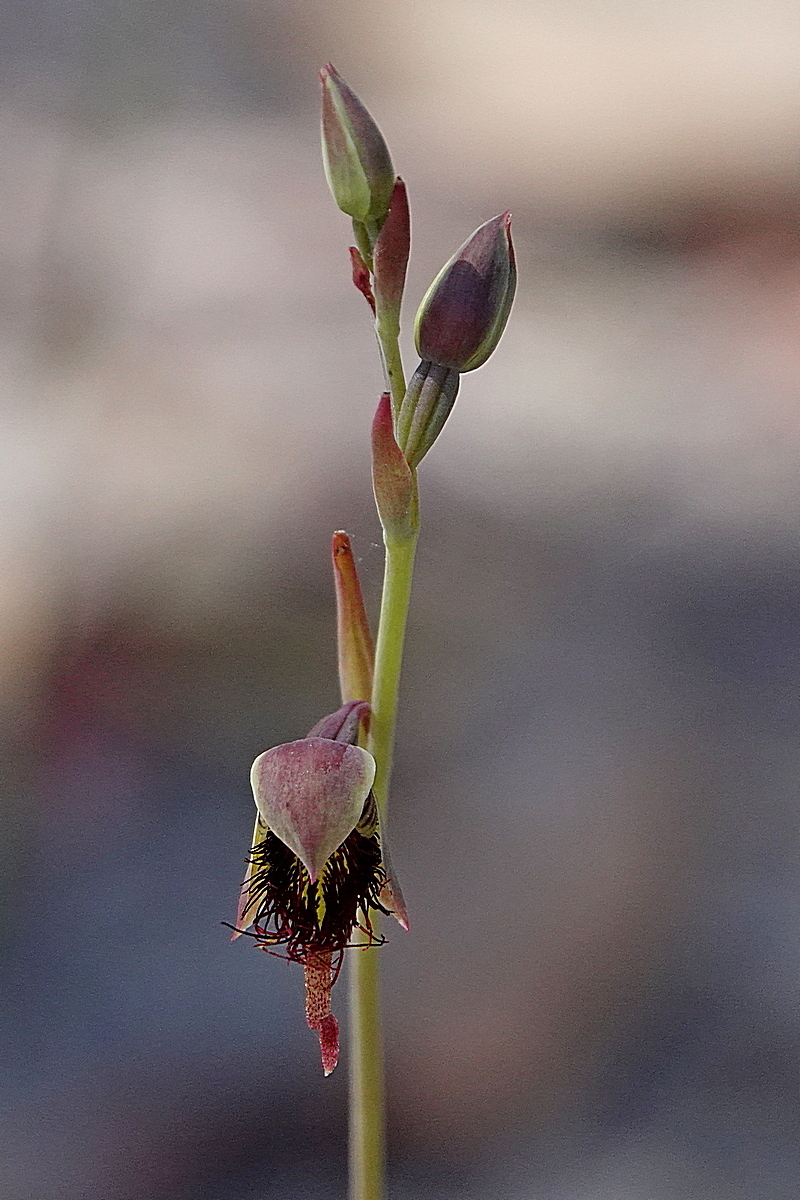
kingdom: Plantae
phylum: Tracheophyta
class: Liliopsida
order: Asparagales
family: Orchidaceae
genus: Calochilus
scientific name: Calochilus paludosus
